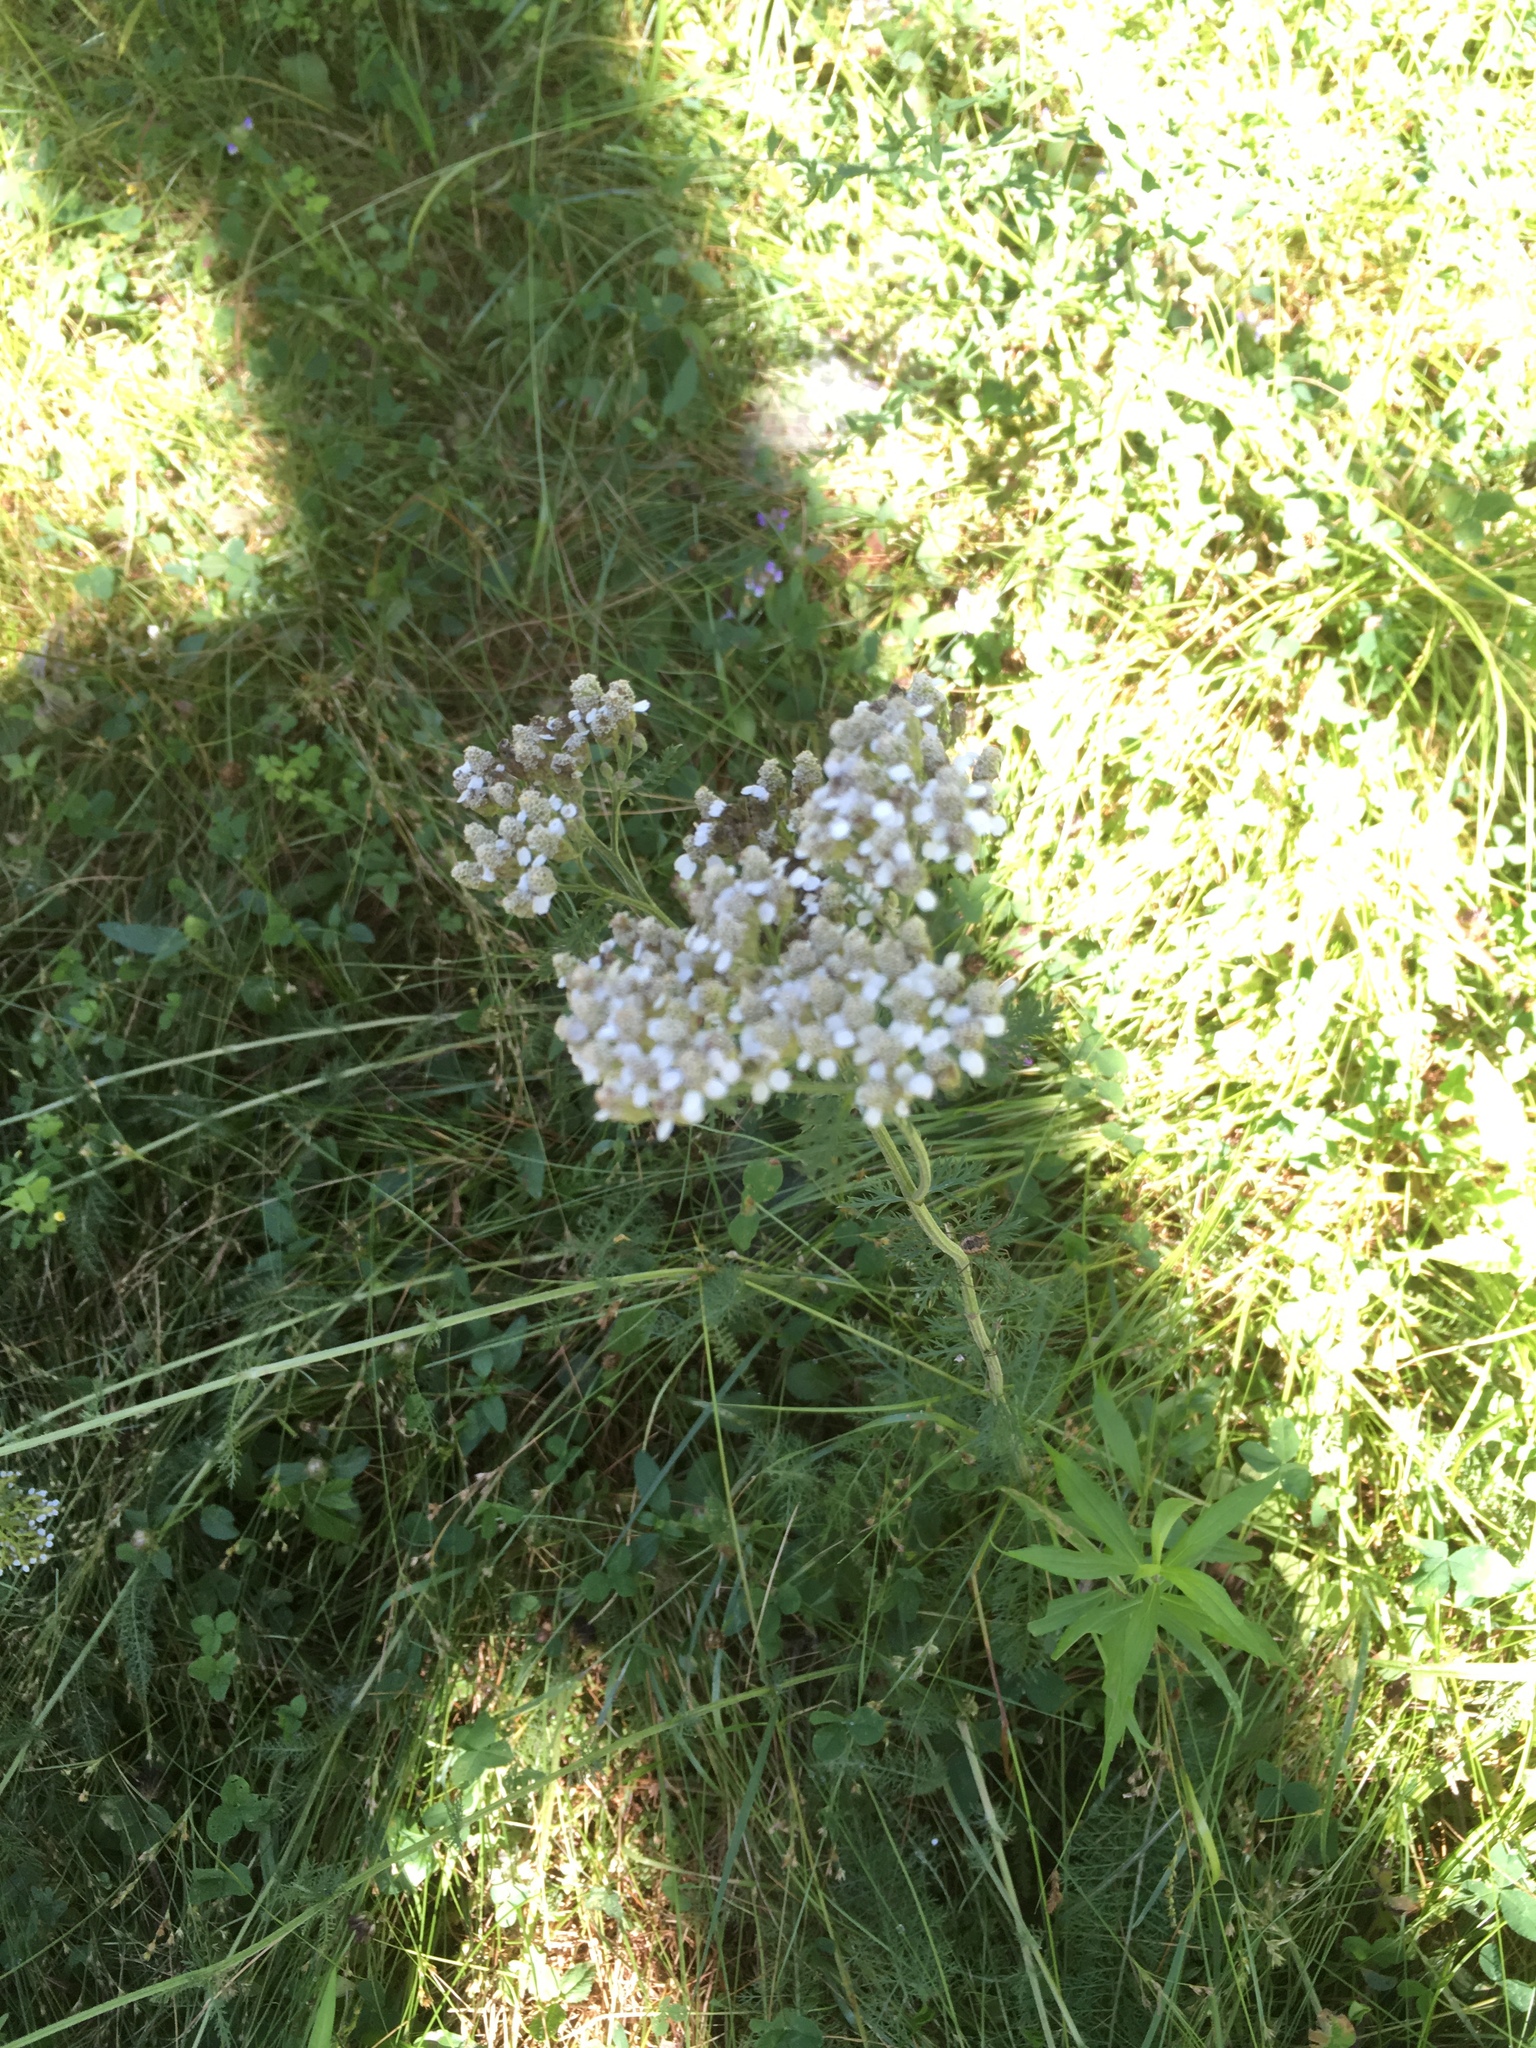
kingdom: Plantae
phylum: Tracheophyta
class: Magnoliopsida
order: Asterales
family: Asteraceae
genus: Achillea
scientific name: Achillea millefolium
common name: Yarrow
